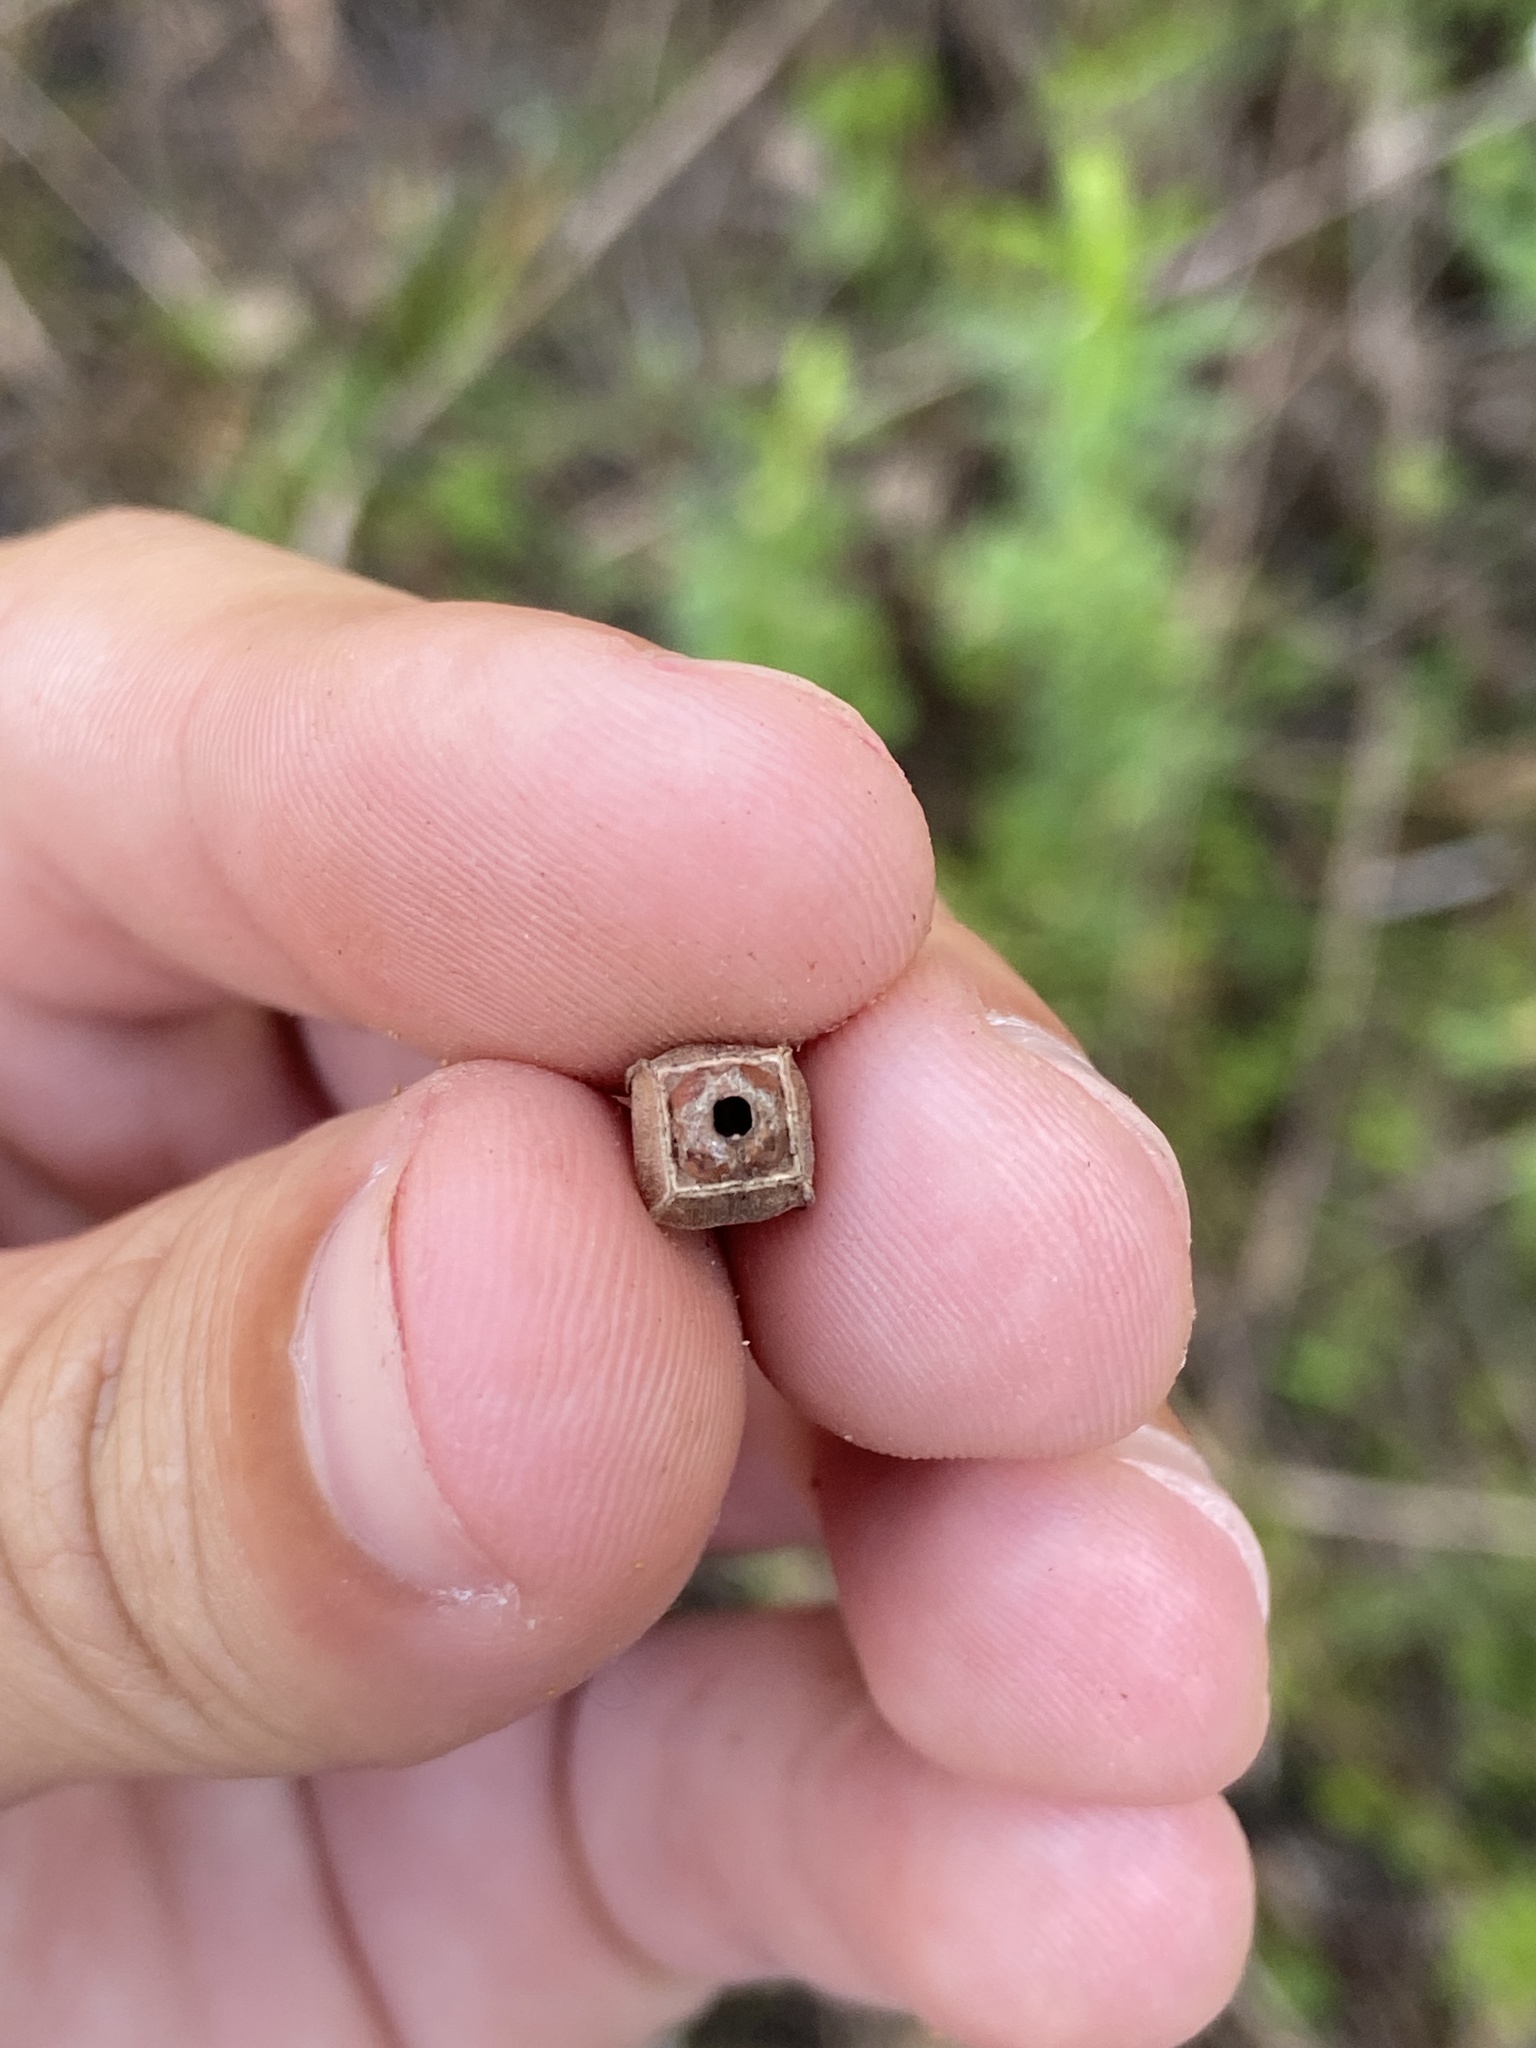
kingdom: Plantae
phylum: Tracheophyta
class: Magnoliopsida
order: Myrtales
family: Onagraceae
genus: Ludwigia
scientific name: Ludwigia maritima
